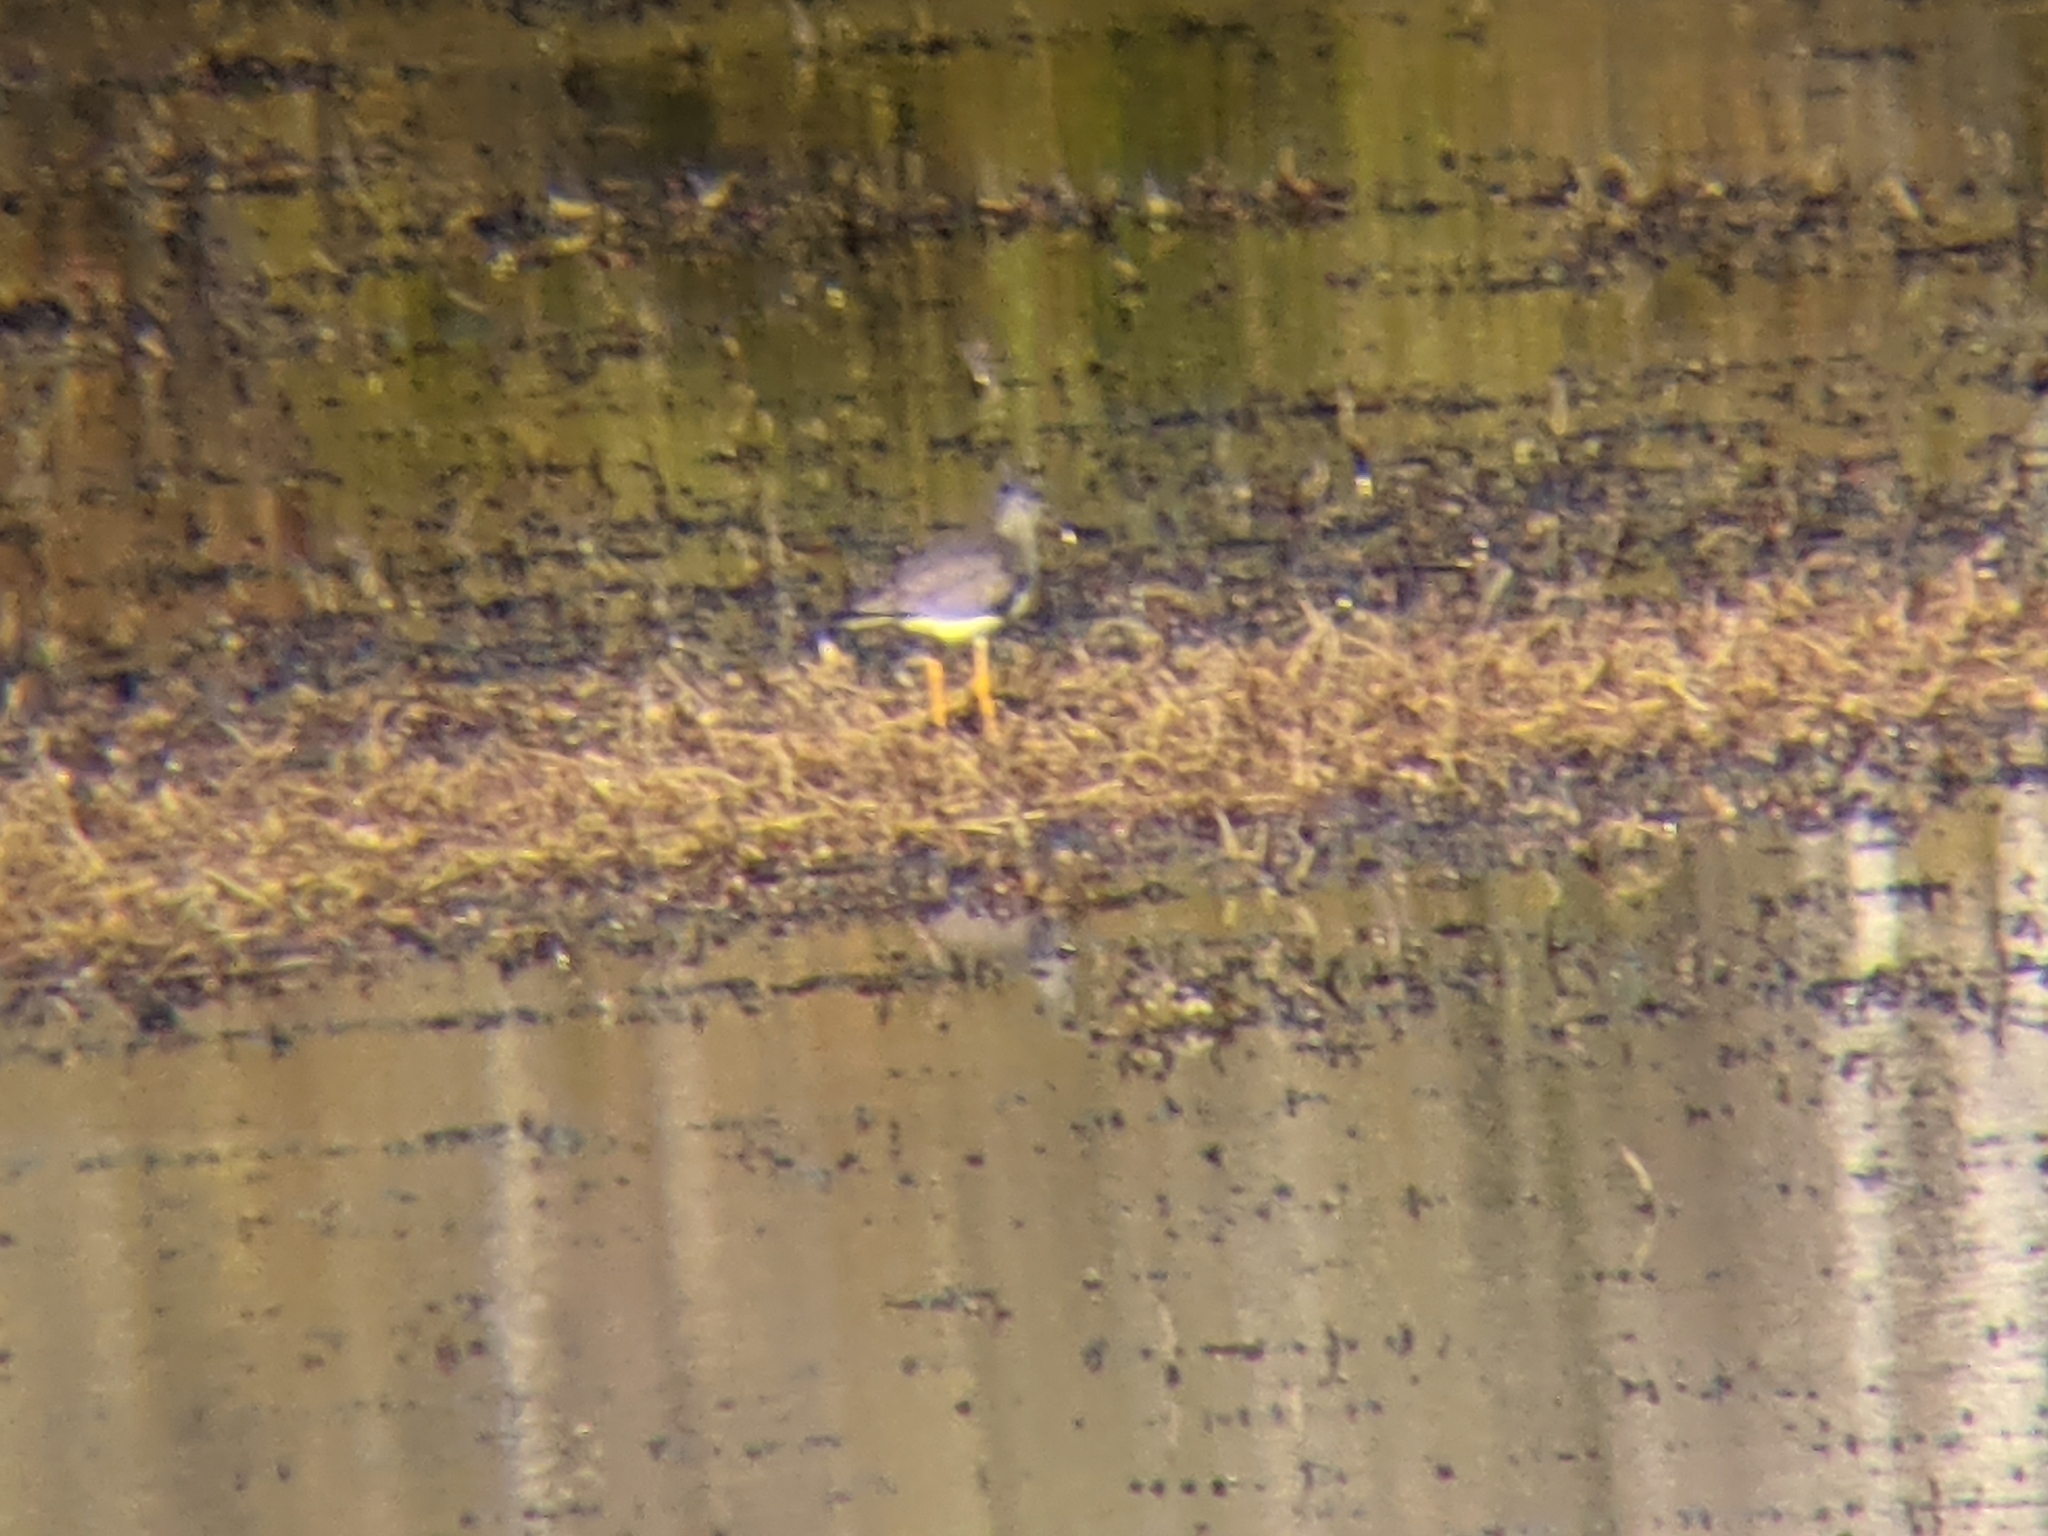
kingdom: Animalia
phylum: Chordata
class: Aves
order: Charadriiformes
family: Scolopacidae
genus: Tringa
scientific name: Tringa melanoleuca
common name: Greater yellowlegs
